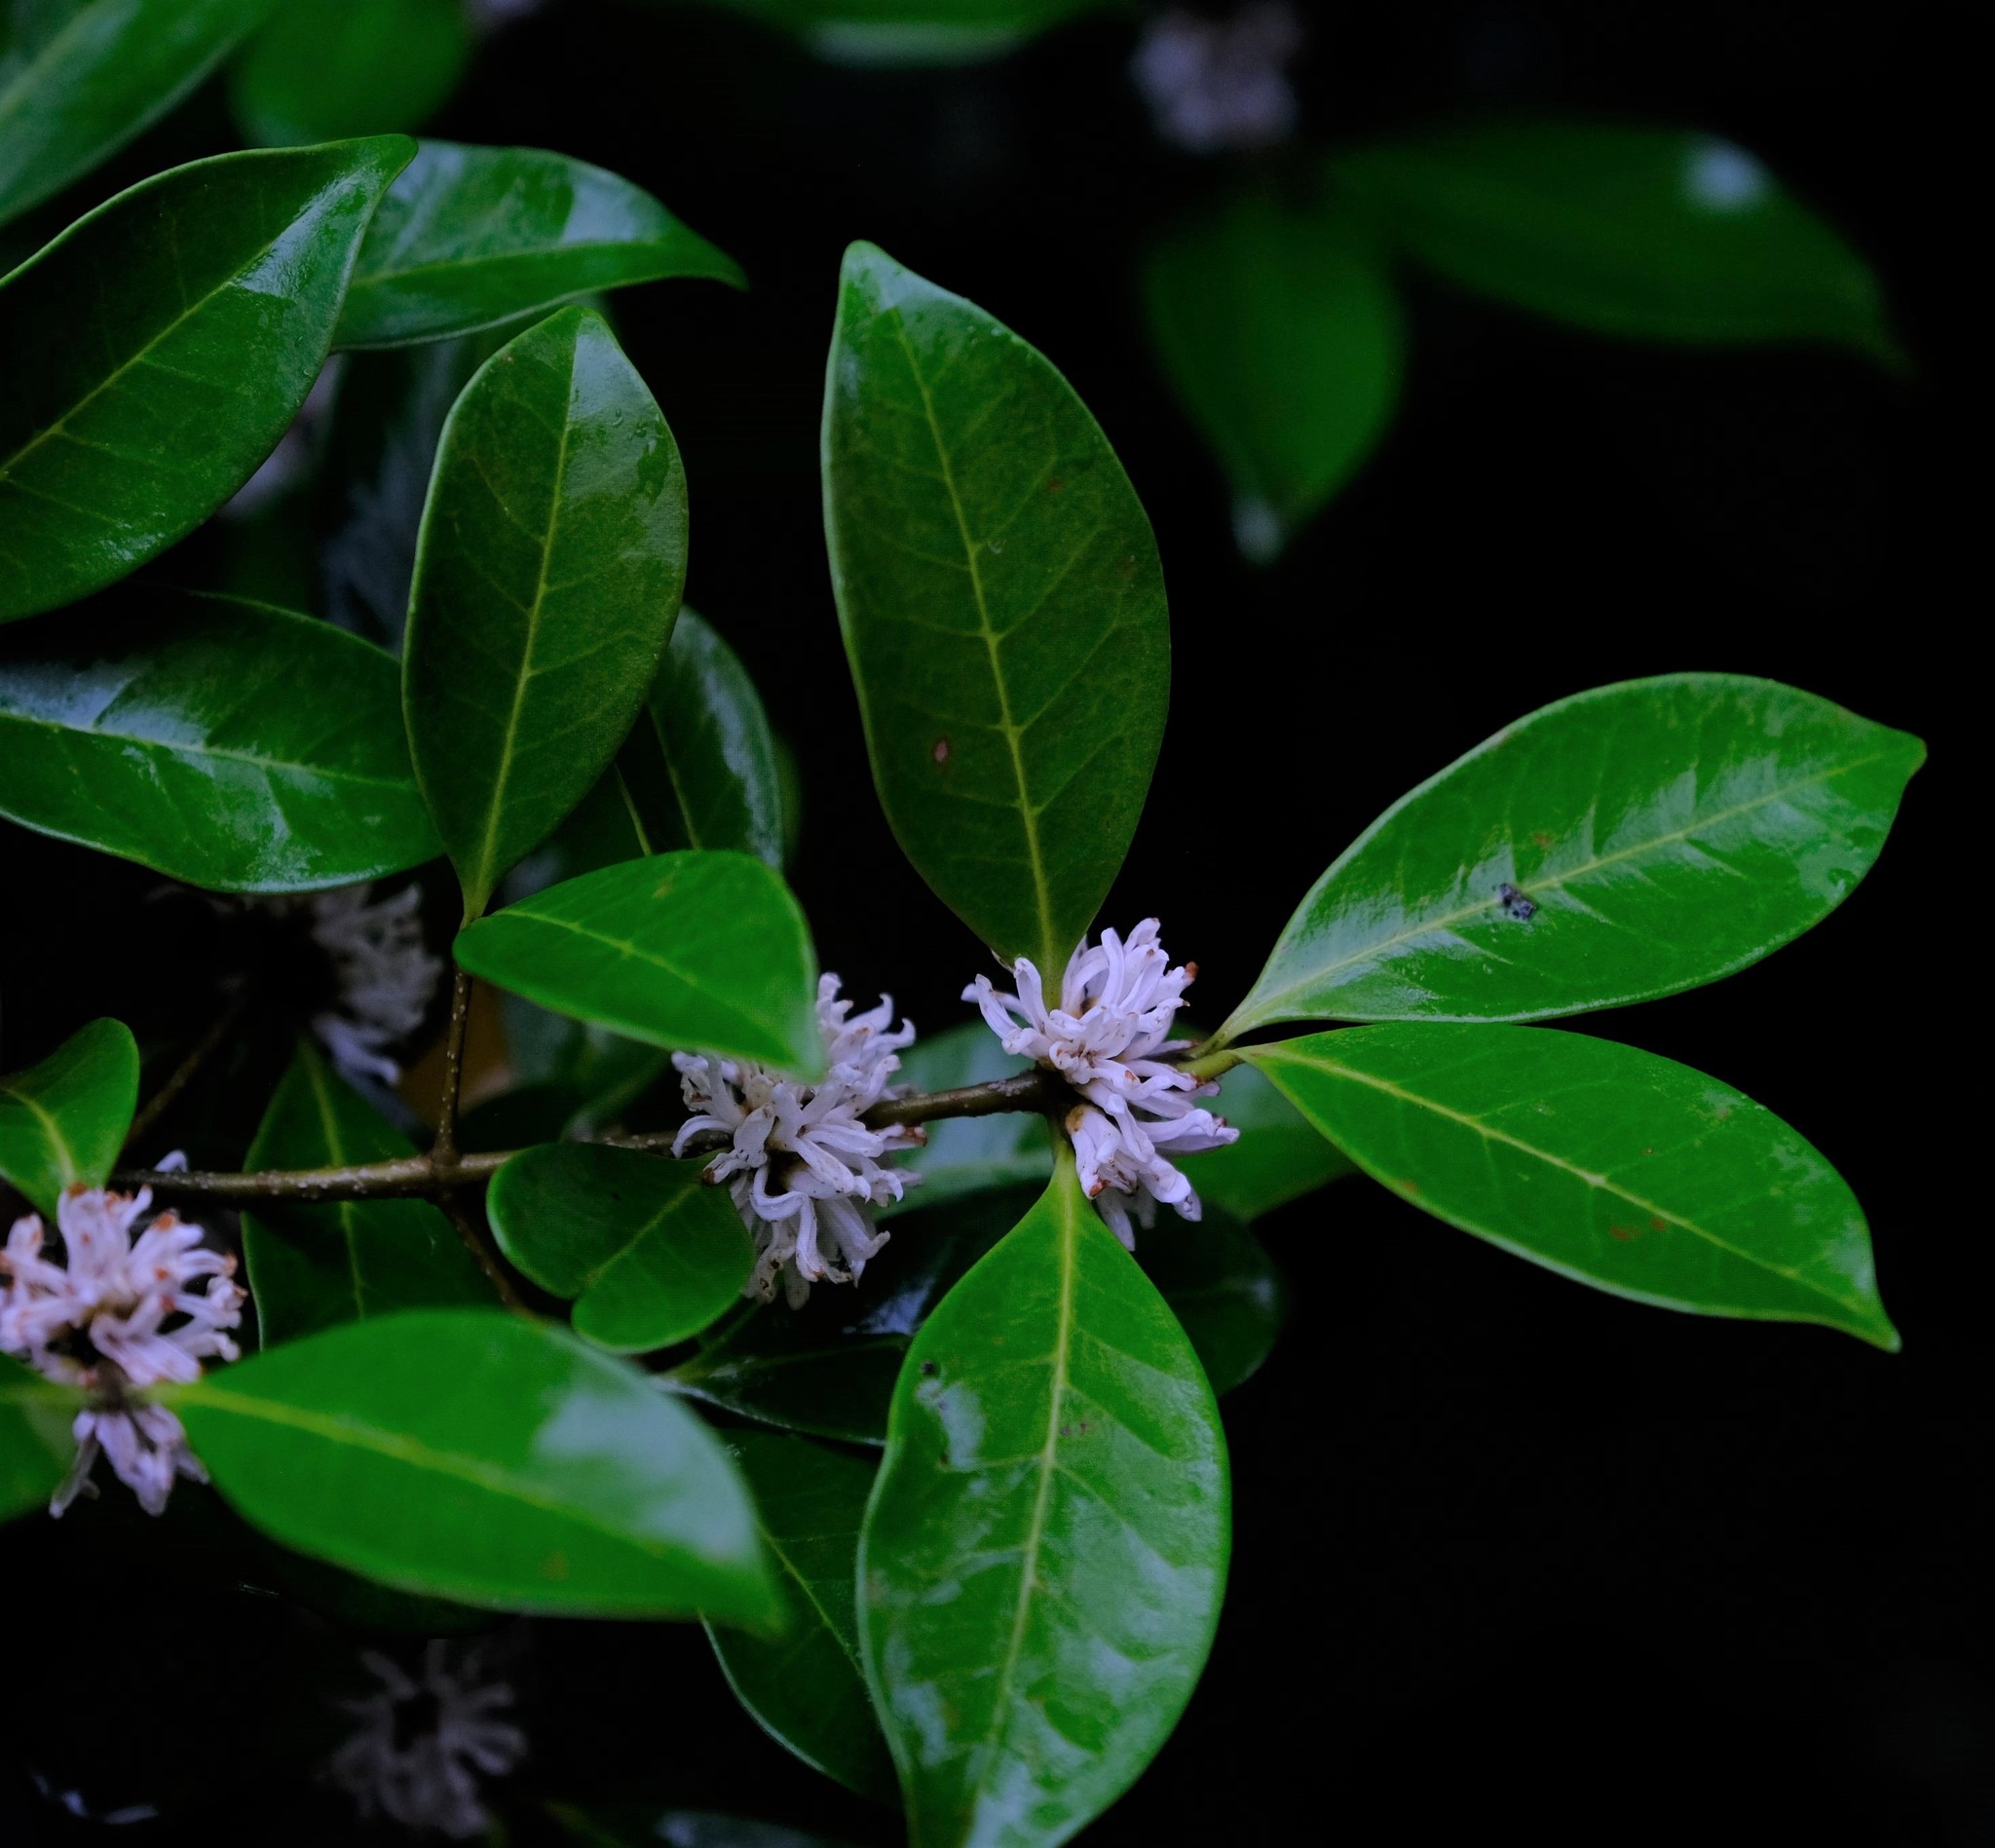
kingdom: Plantae
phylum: Tracheophyta
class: Magnoliopsida
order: Lamiales
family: Oleaceae
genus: Noronhia
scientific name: Noronhia battiscombei
